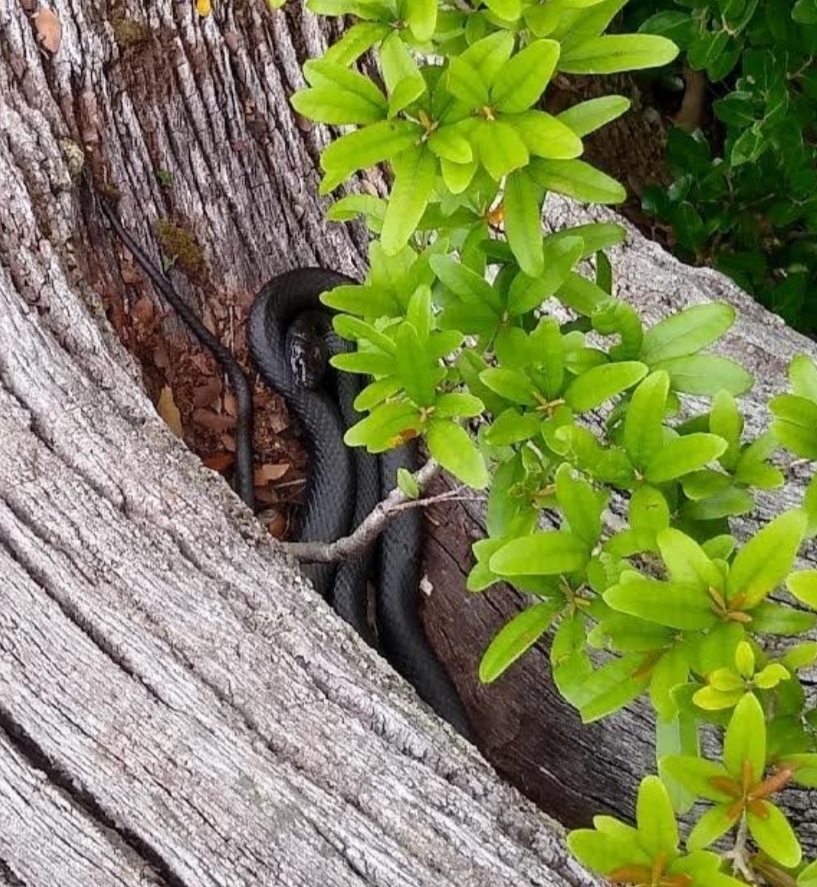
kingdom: Animalia
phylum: Chordata
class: Squamata
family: Colubridae
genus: Coluber
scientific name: Coluber constrictor
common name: Eastern racer
